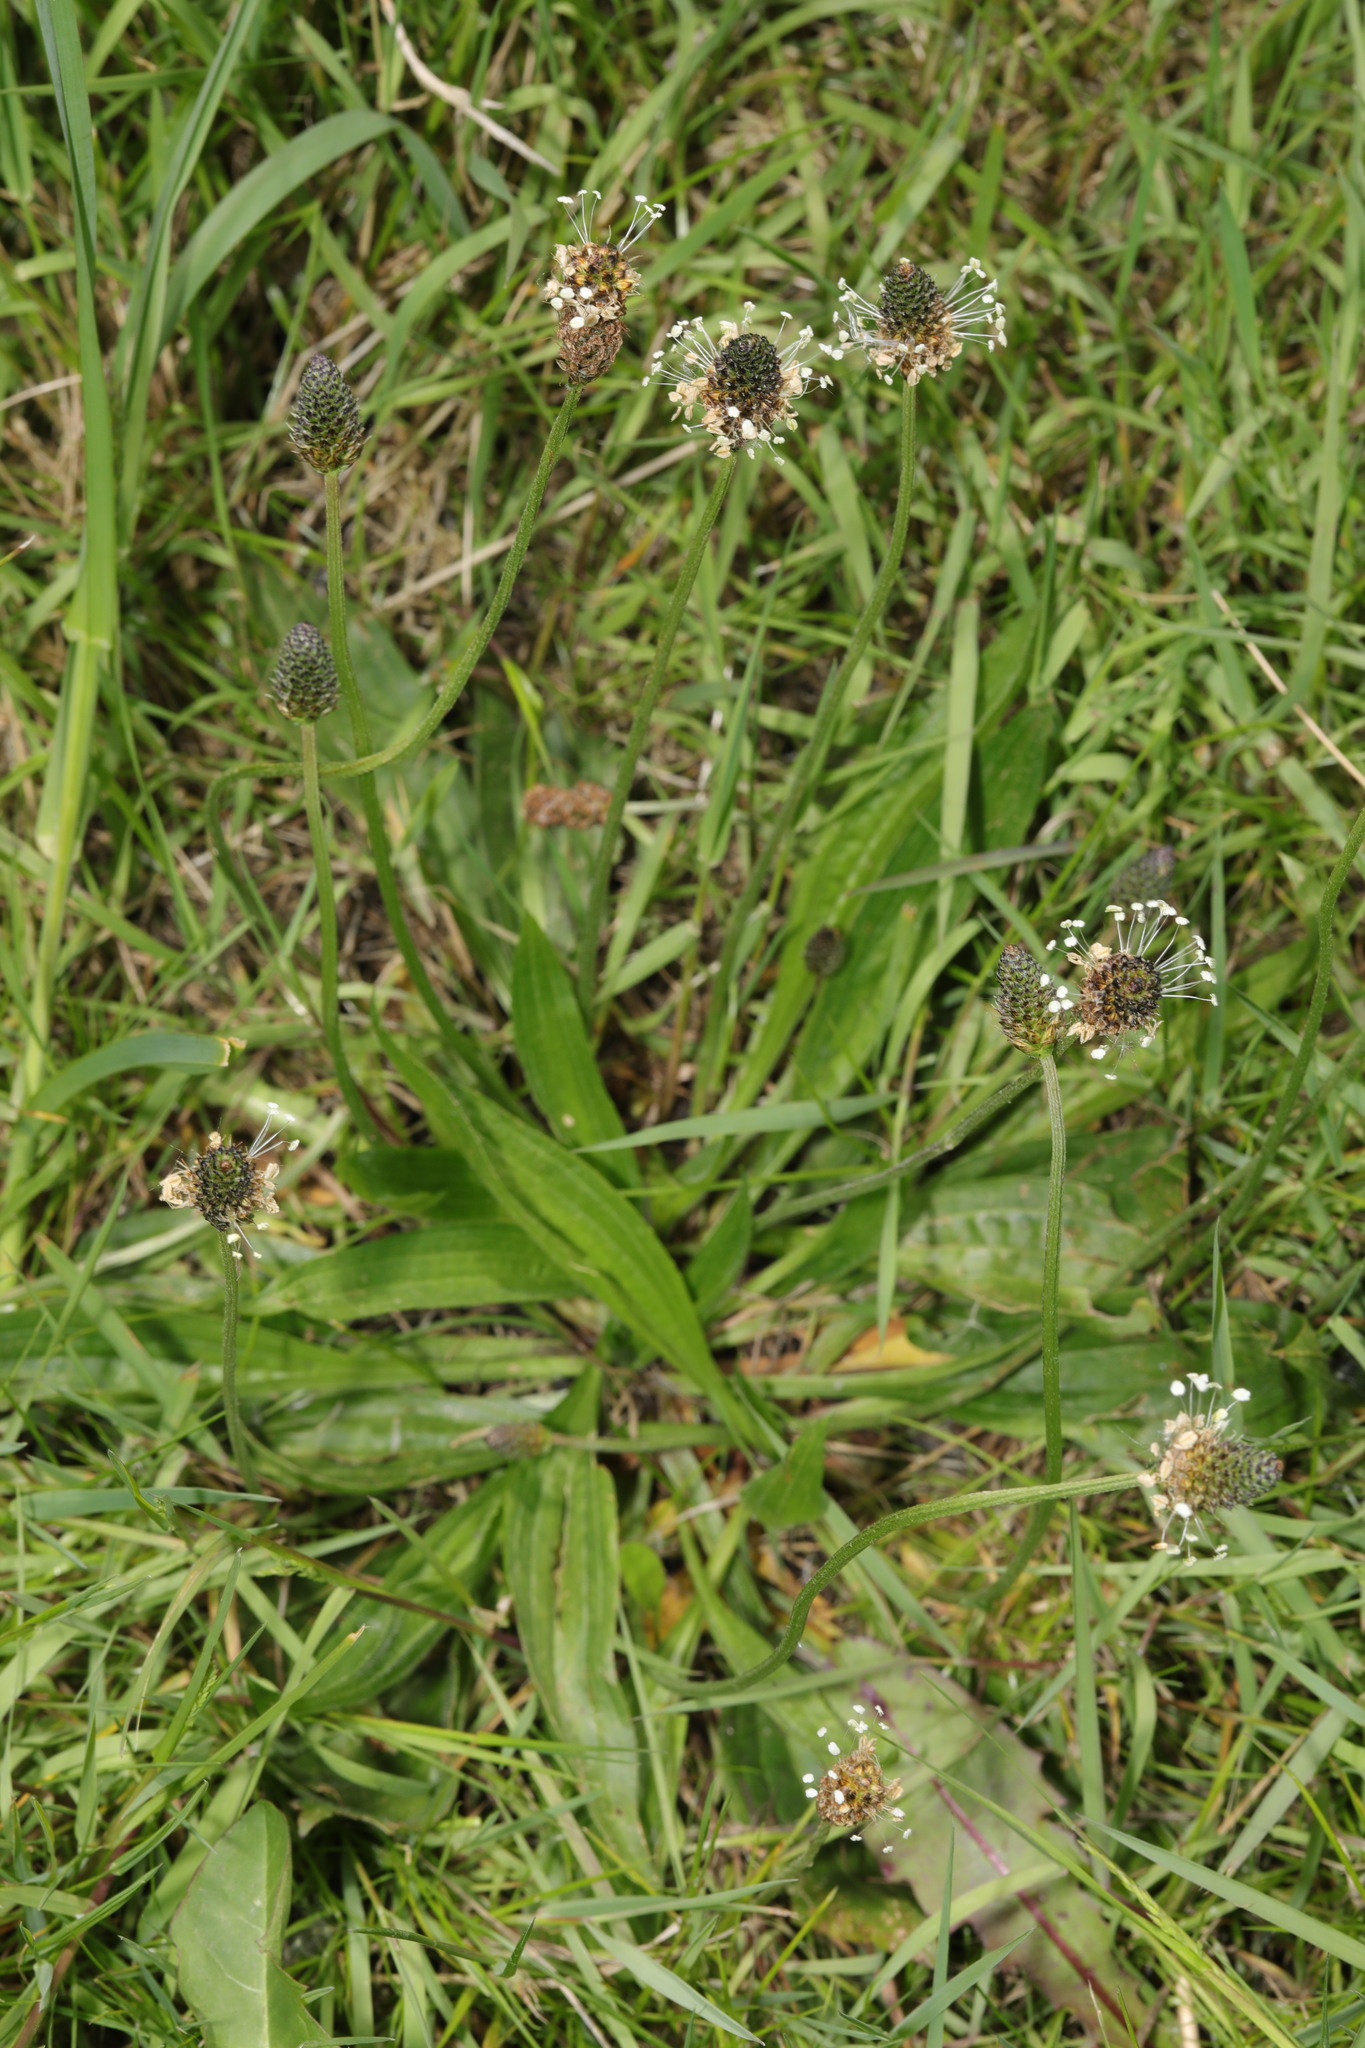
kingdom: Plantae
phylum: Tracheophyta
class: Magnoliopsida
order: Lamiales
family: Plantaginaceae
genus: Plantago
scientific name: Plantago lanceolata
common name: Ribwort plantain
